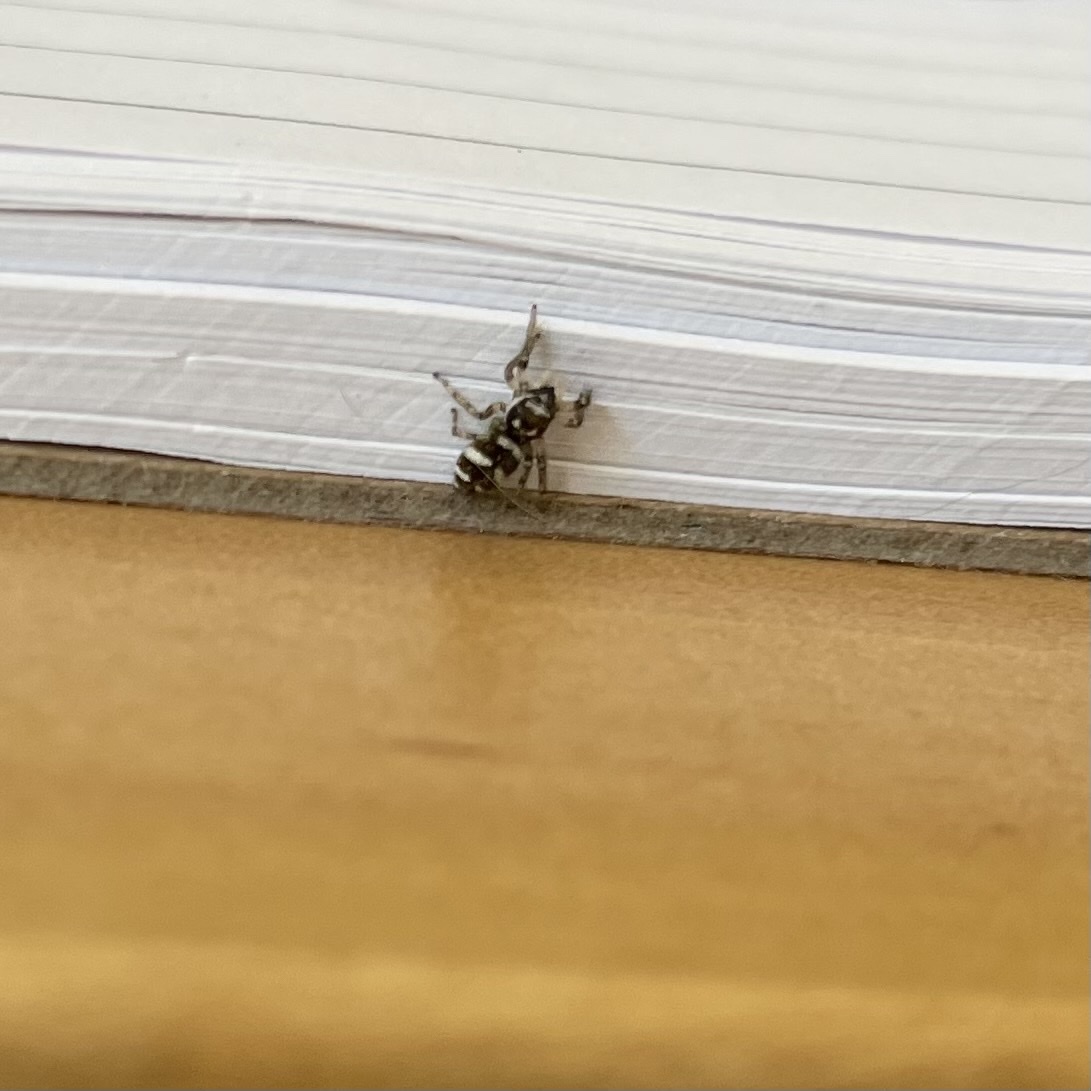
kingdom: Animalia
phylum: Arthropoda
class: Arachnida
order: Araneae
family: Salticidae
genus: Salticus
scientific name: Salticus scenicus
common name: Zebra jumper
